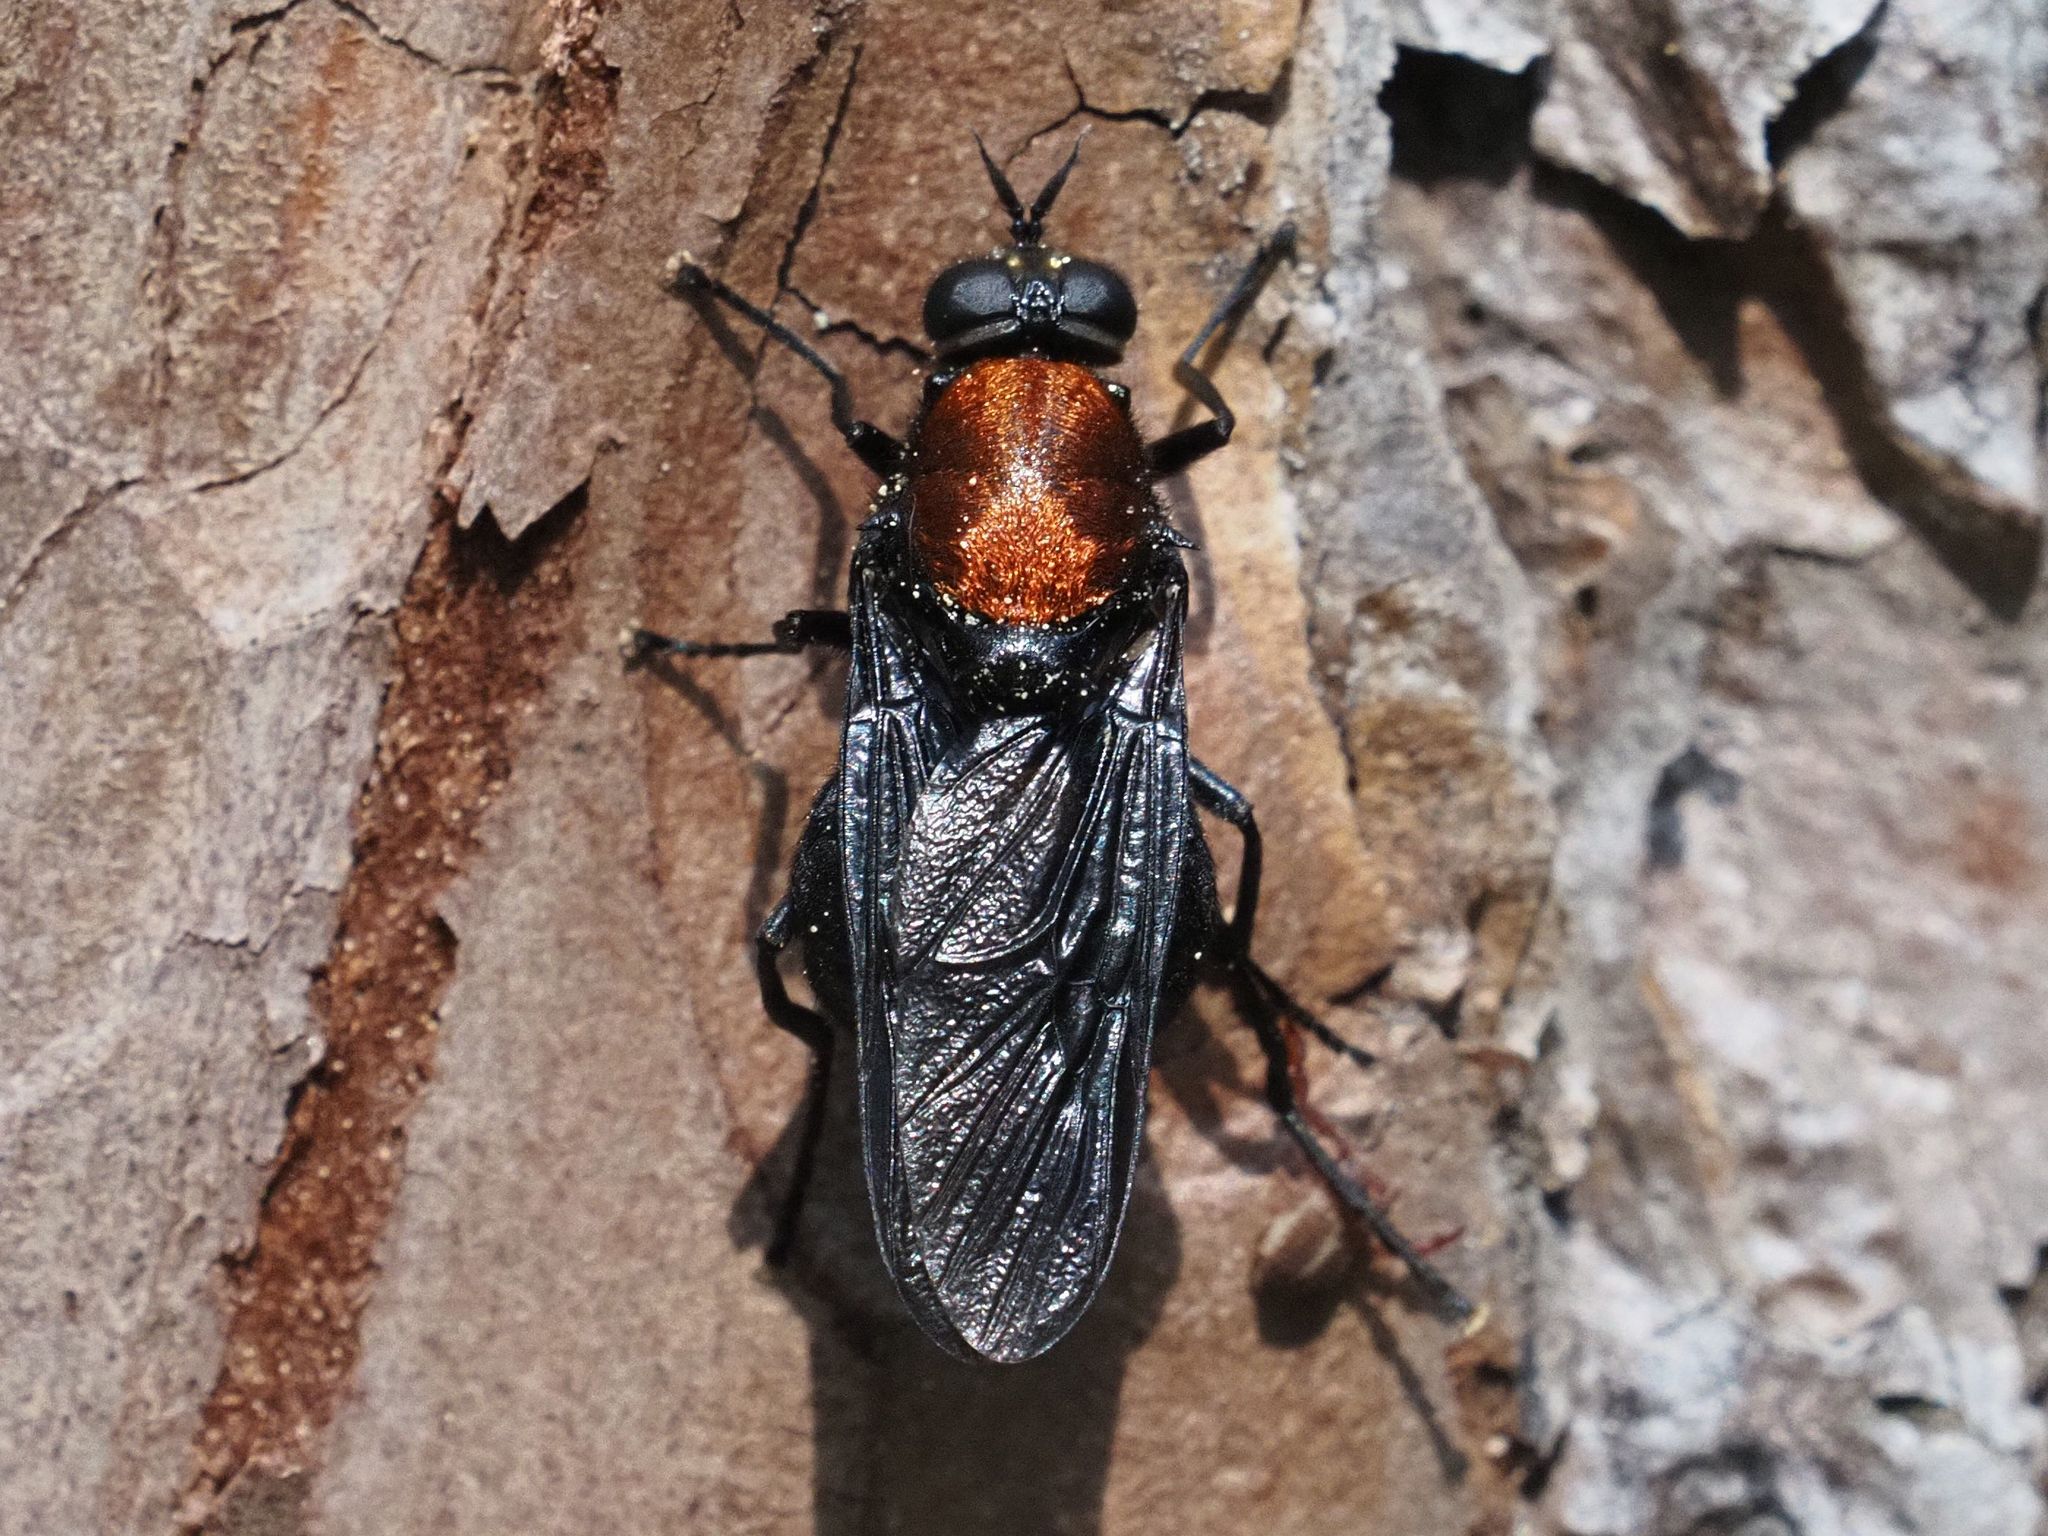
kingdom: Animalia
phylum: Arthropoda
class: Insecta
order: Diptera
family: Stratiomyidae
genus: Clitellaria
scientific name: Clitellaria ephippium
